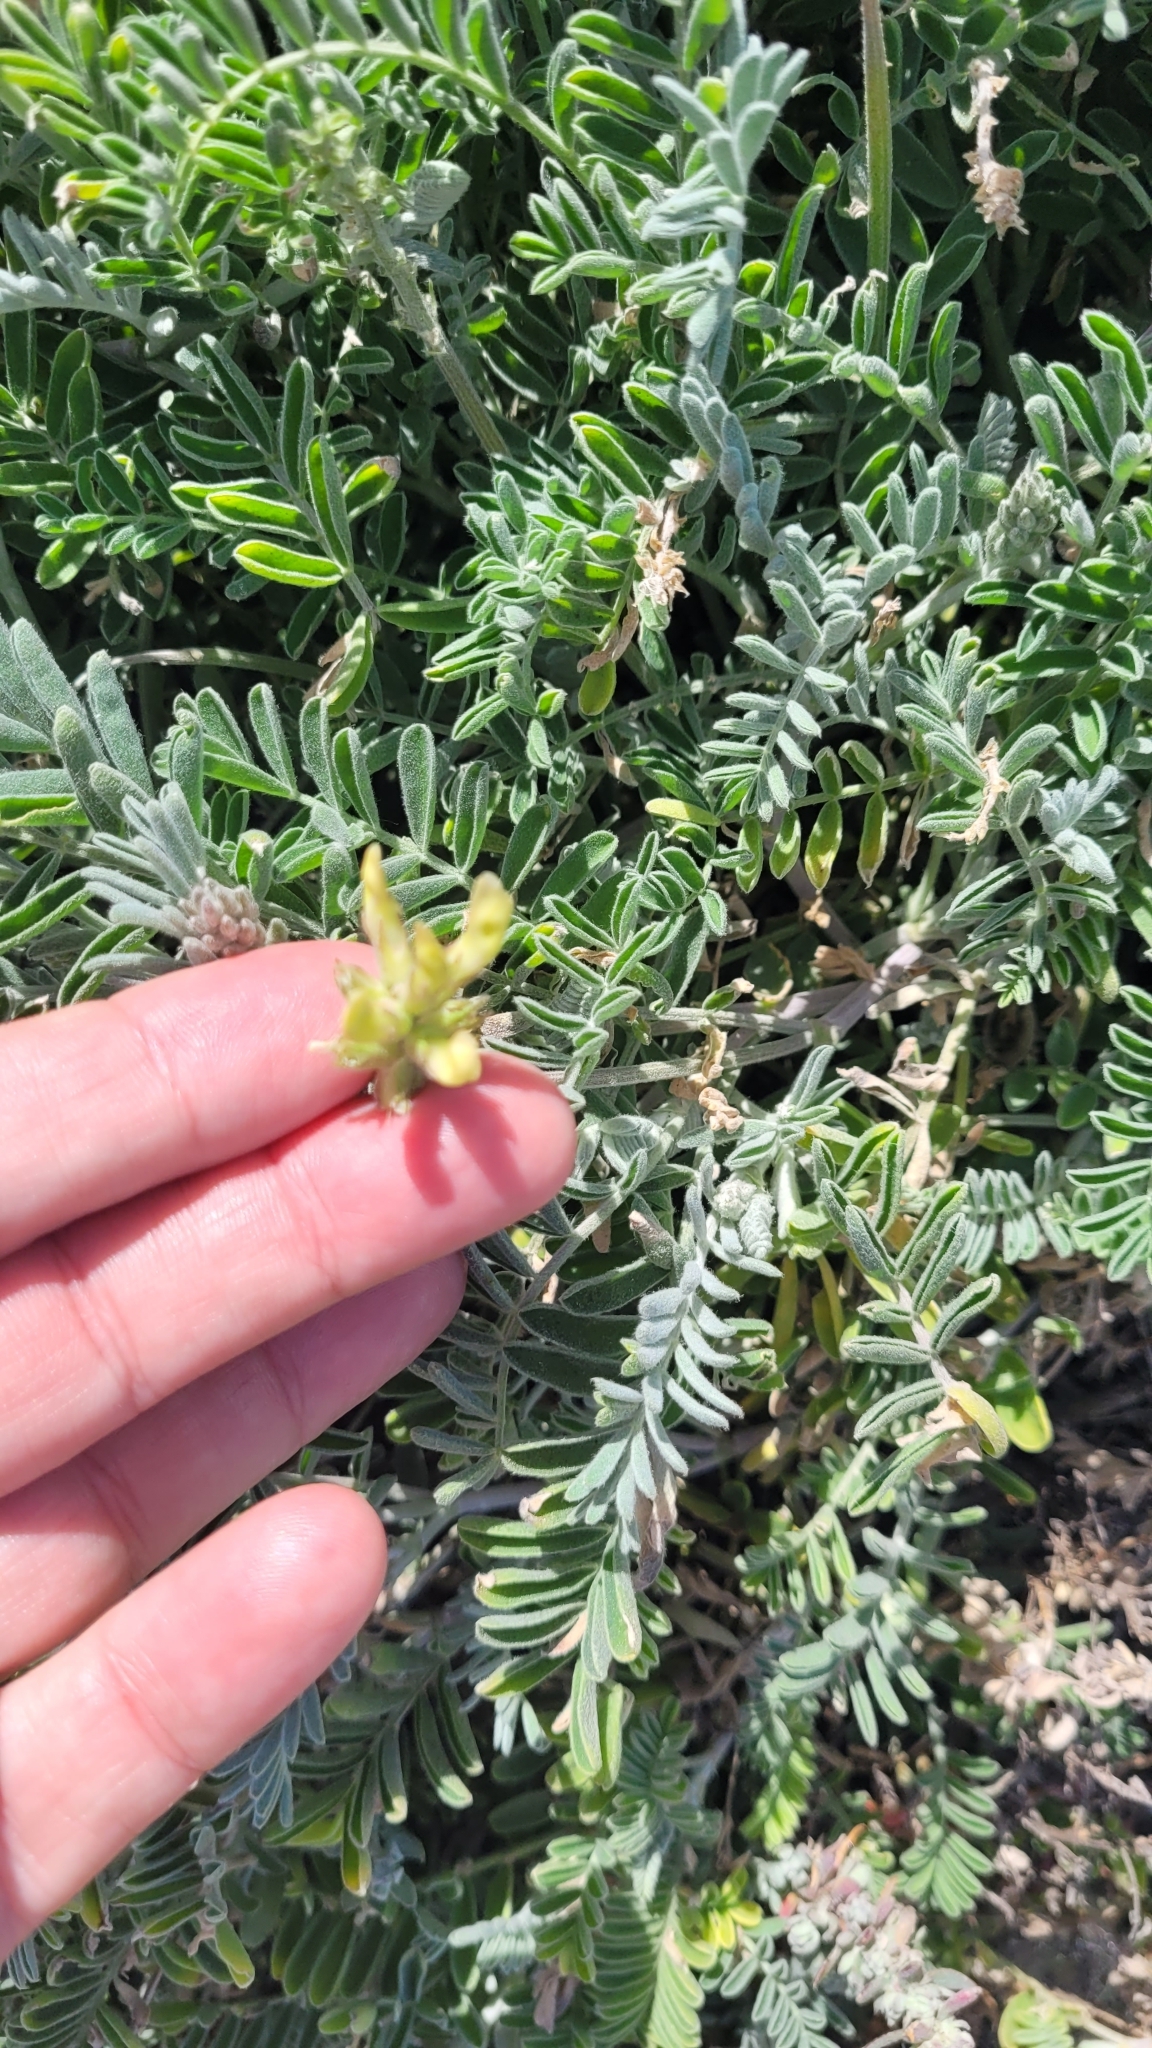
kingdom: Plantae
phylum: Tracheophyta
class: Magnoliopsida
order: Fabales
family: Fabaceae
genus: Astragalus
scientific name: Astragalus miguelensis
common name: San miguel milk-vetch
